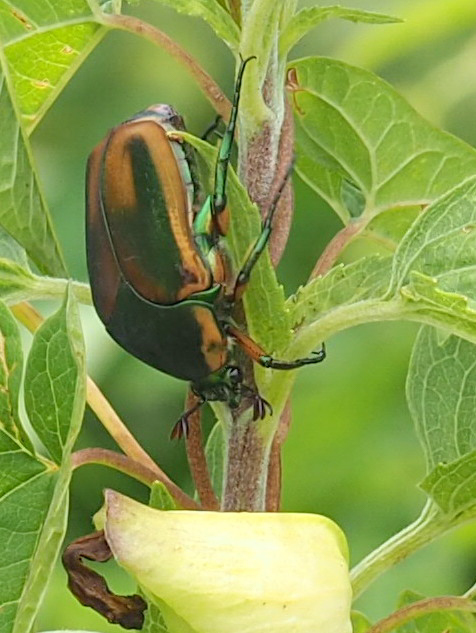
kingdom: Animalia
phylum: Arthropoda
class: Insecta
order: Coleoptera
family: Scarabaeidae
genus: Cotinis
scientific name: Cotinis nitida
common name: Common green june beetle
